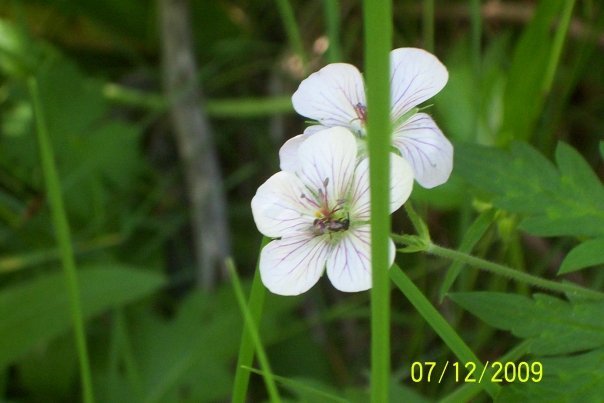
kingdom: Plantae
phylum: Tracheophyta
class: Magnoliopsida
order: Geraniales
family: Geraniaceae
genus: Geranium
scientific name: Geranium richardsonii
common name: Richardson's crane's-bill
